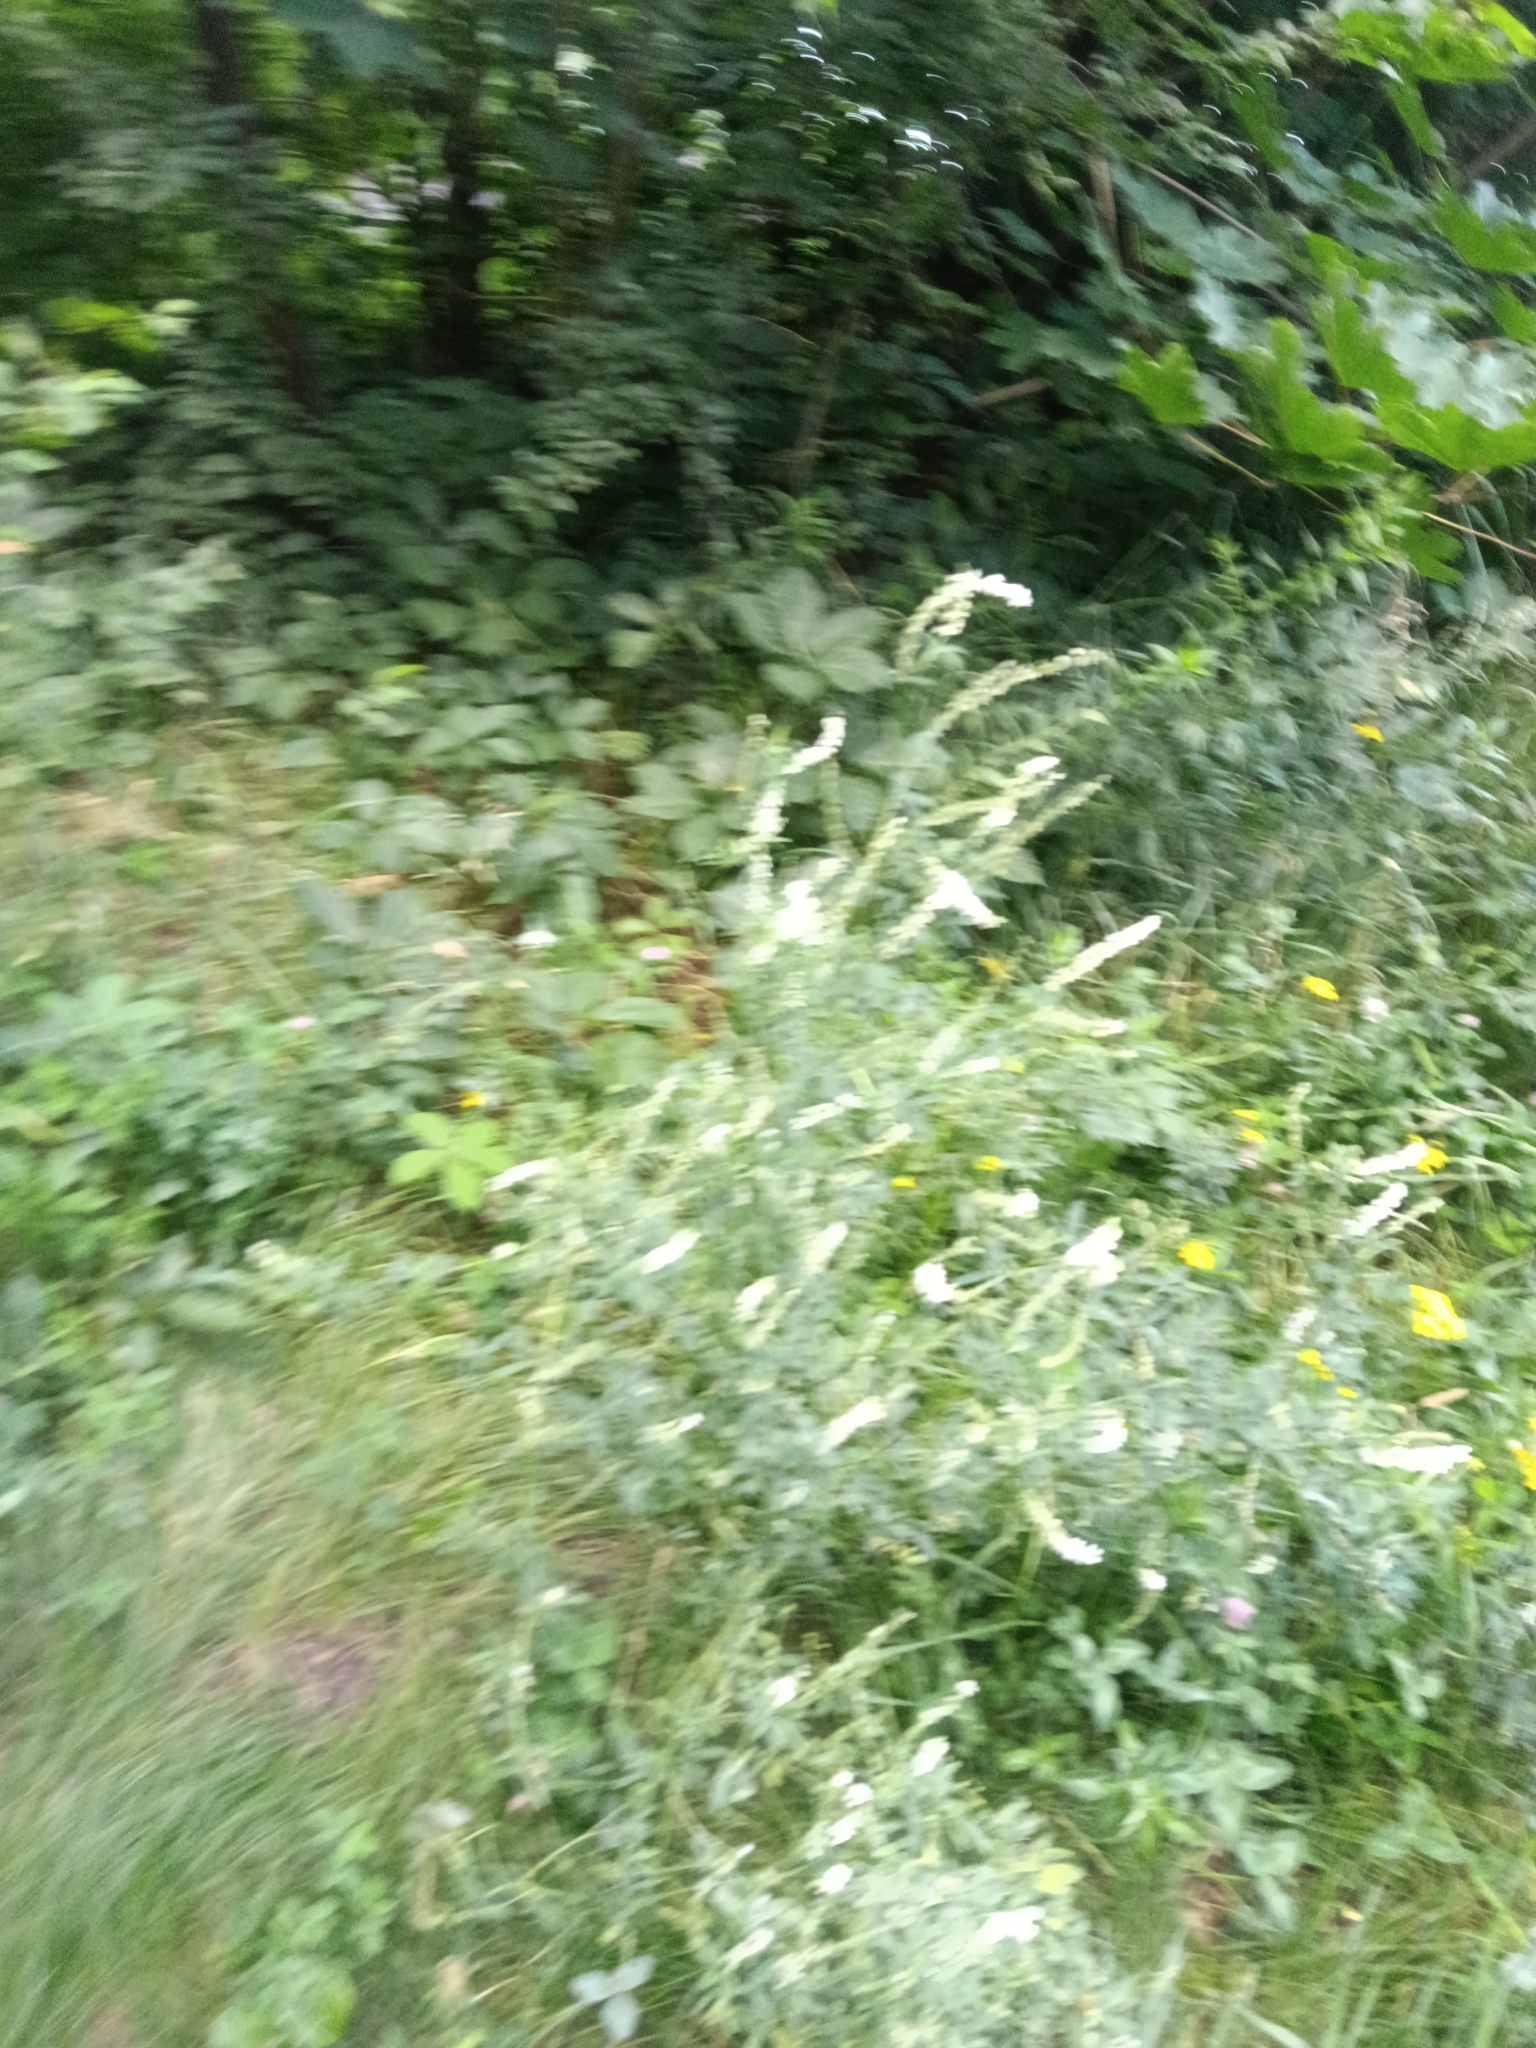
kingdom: Plantae
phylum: Tracheophyta
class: Magnoliopsida
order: Fabales
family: Fabaceae
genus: Melilotus
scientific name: Melilotus albus
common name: White melilot
